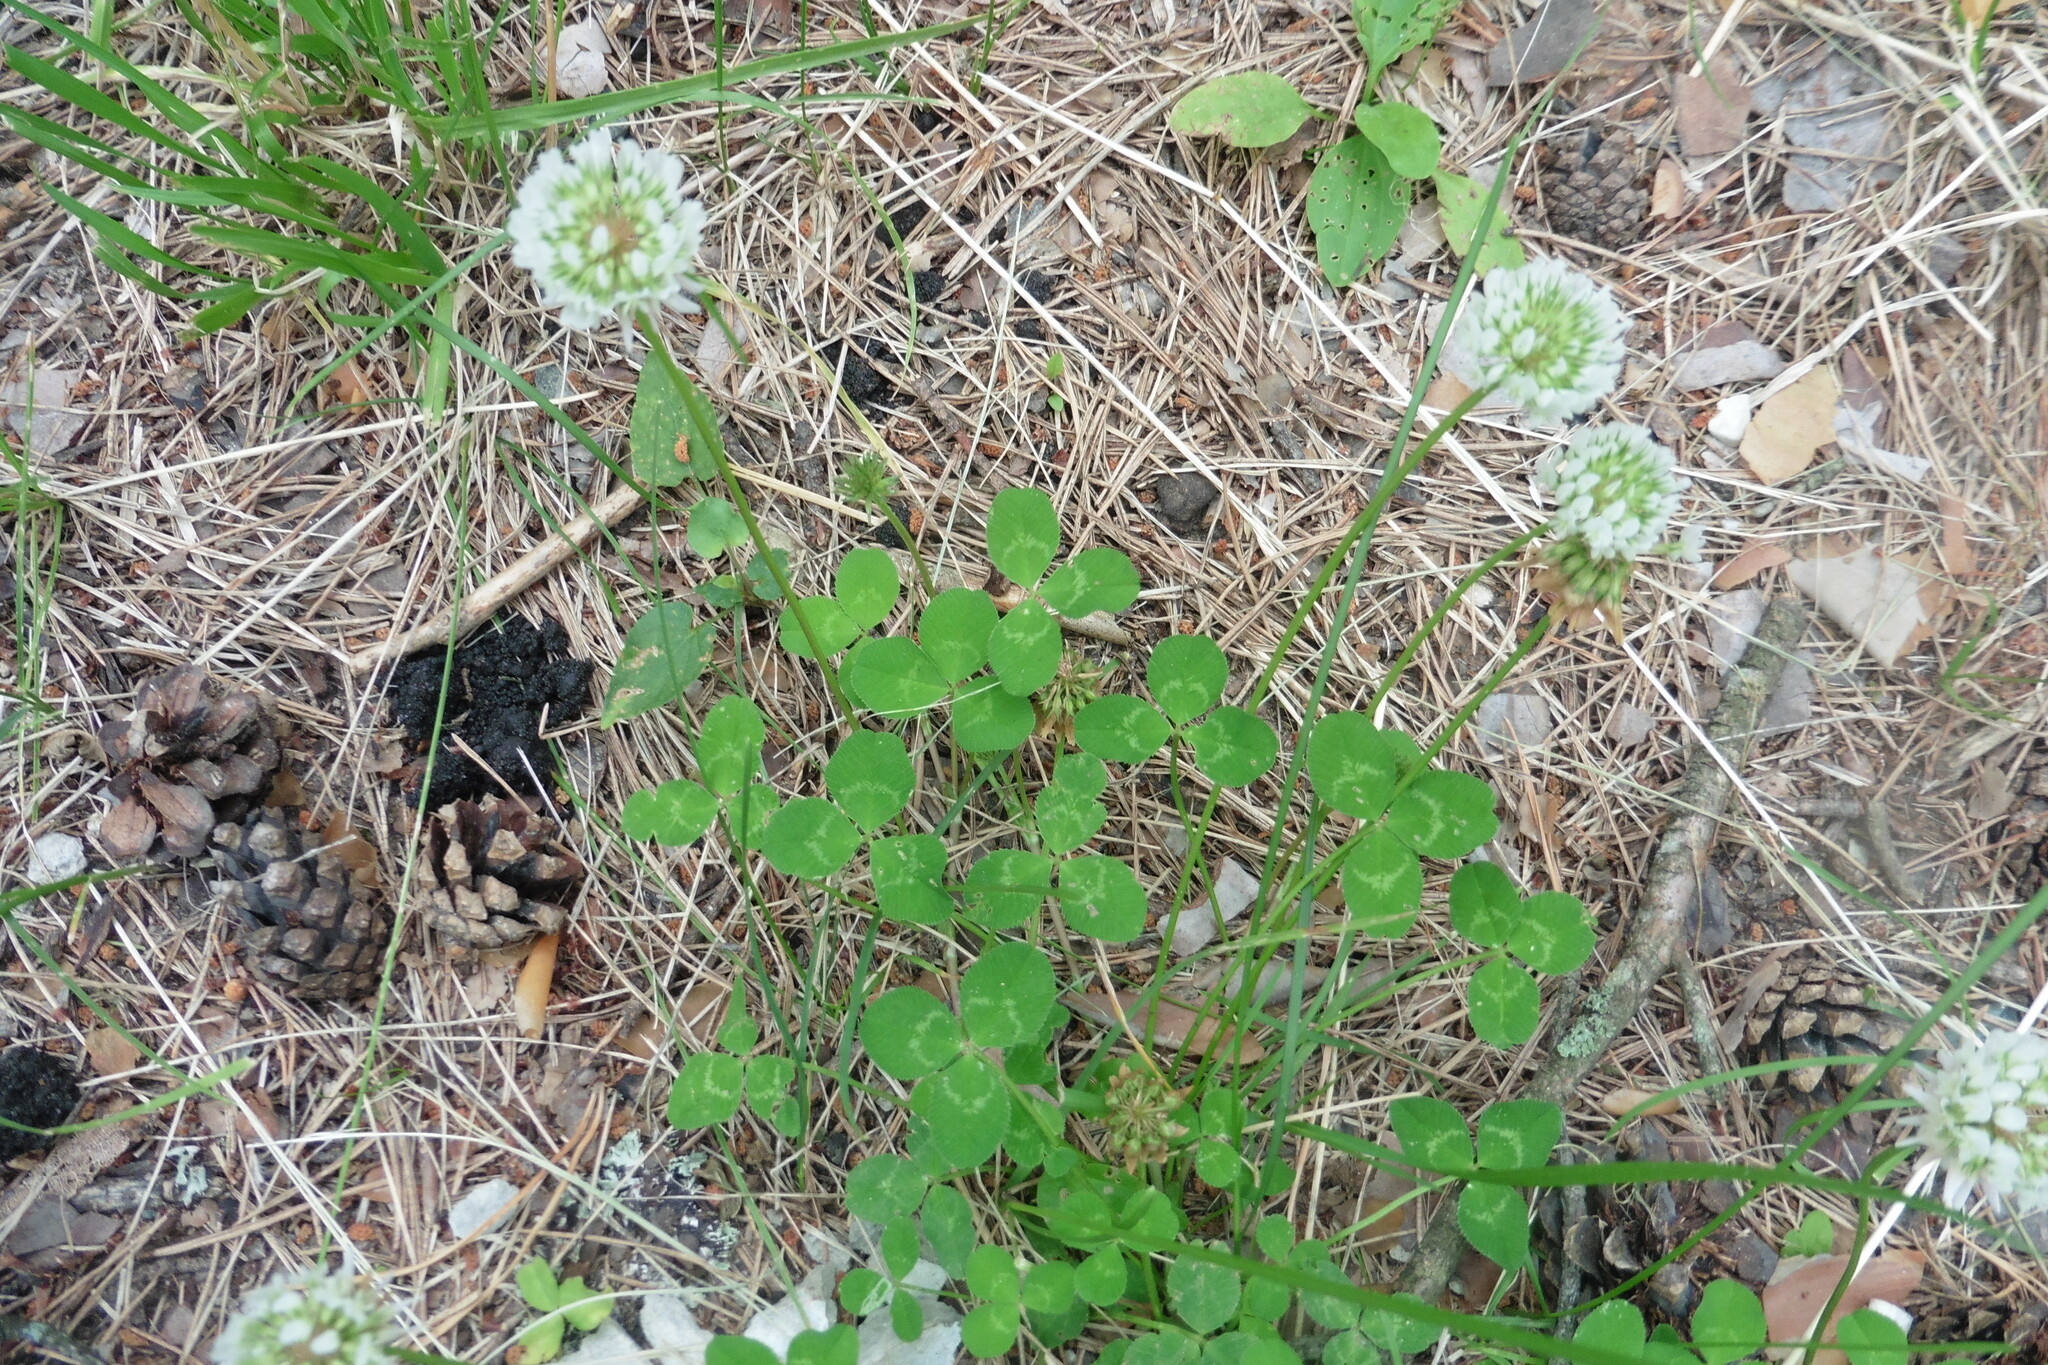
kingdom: Plantae
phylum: Tracheophyta
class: Magnoliopsida
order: Fabales
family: Fabaceae
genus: Trifolium
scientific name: Trifolium repens
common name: White clover
